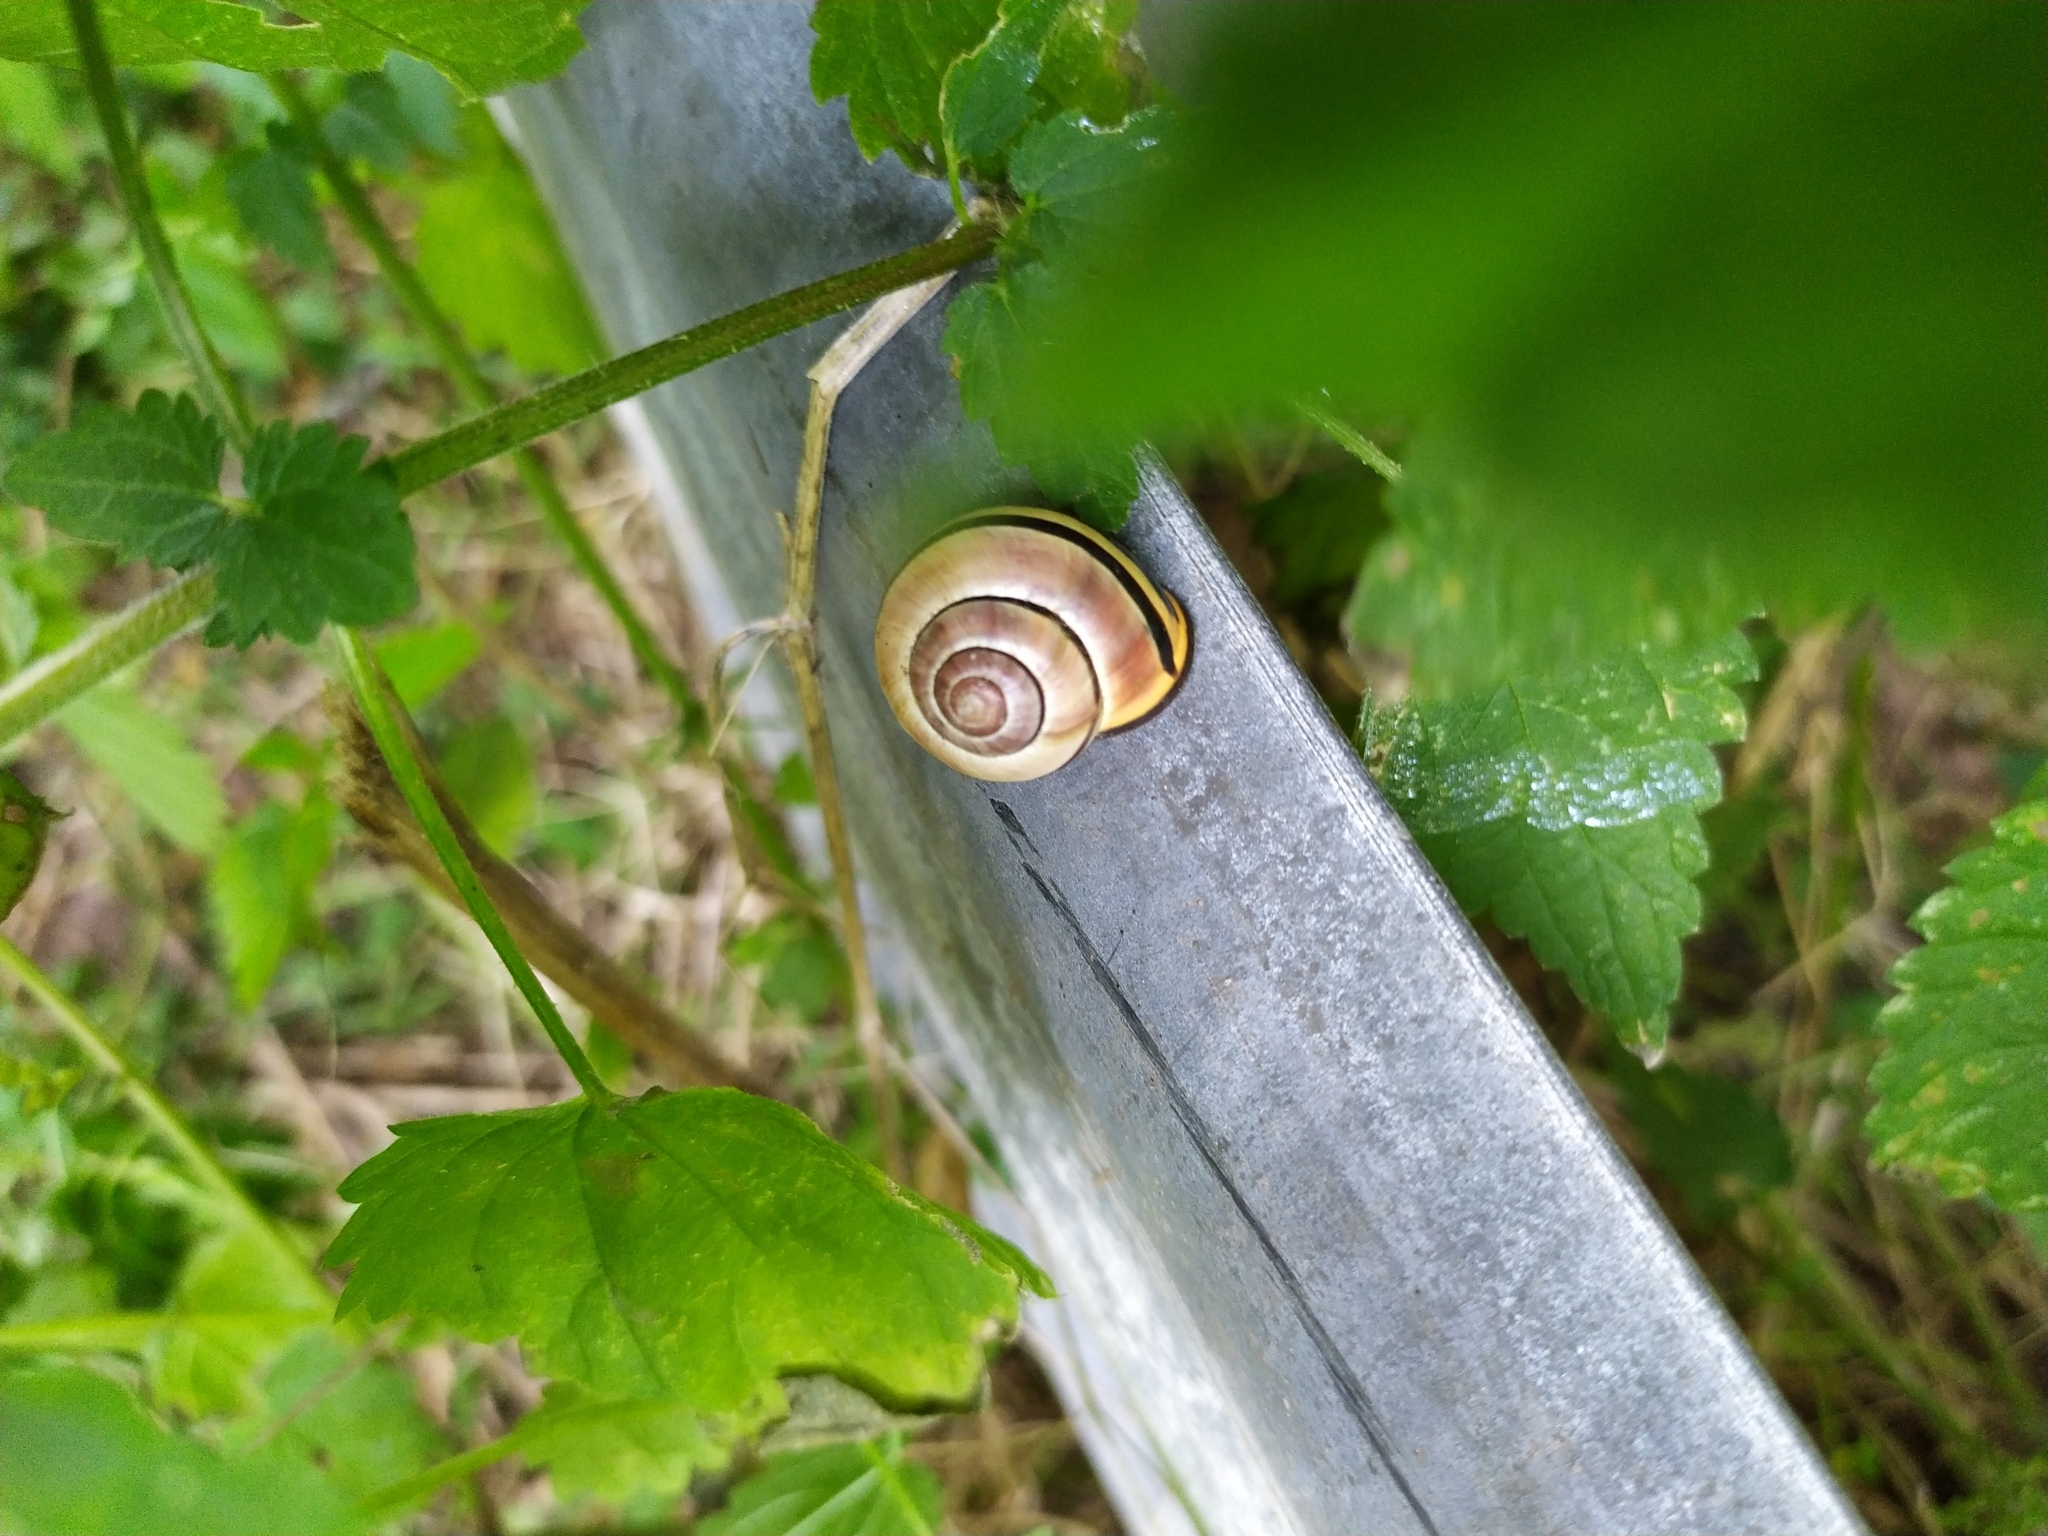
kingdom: Animalia
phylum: Mollusca
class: Gastropoda
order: Stylommatophora
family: Helicidae
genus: Cepaea
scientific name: Cepaea nemoralis
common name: Grovesnail
